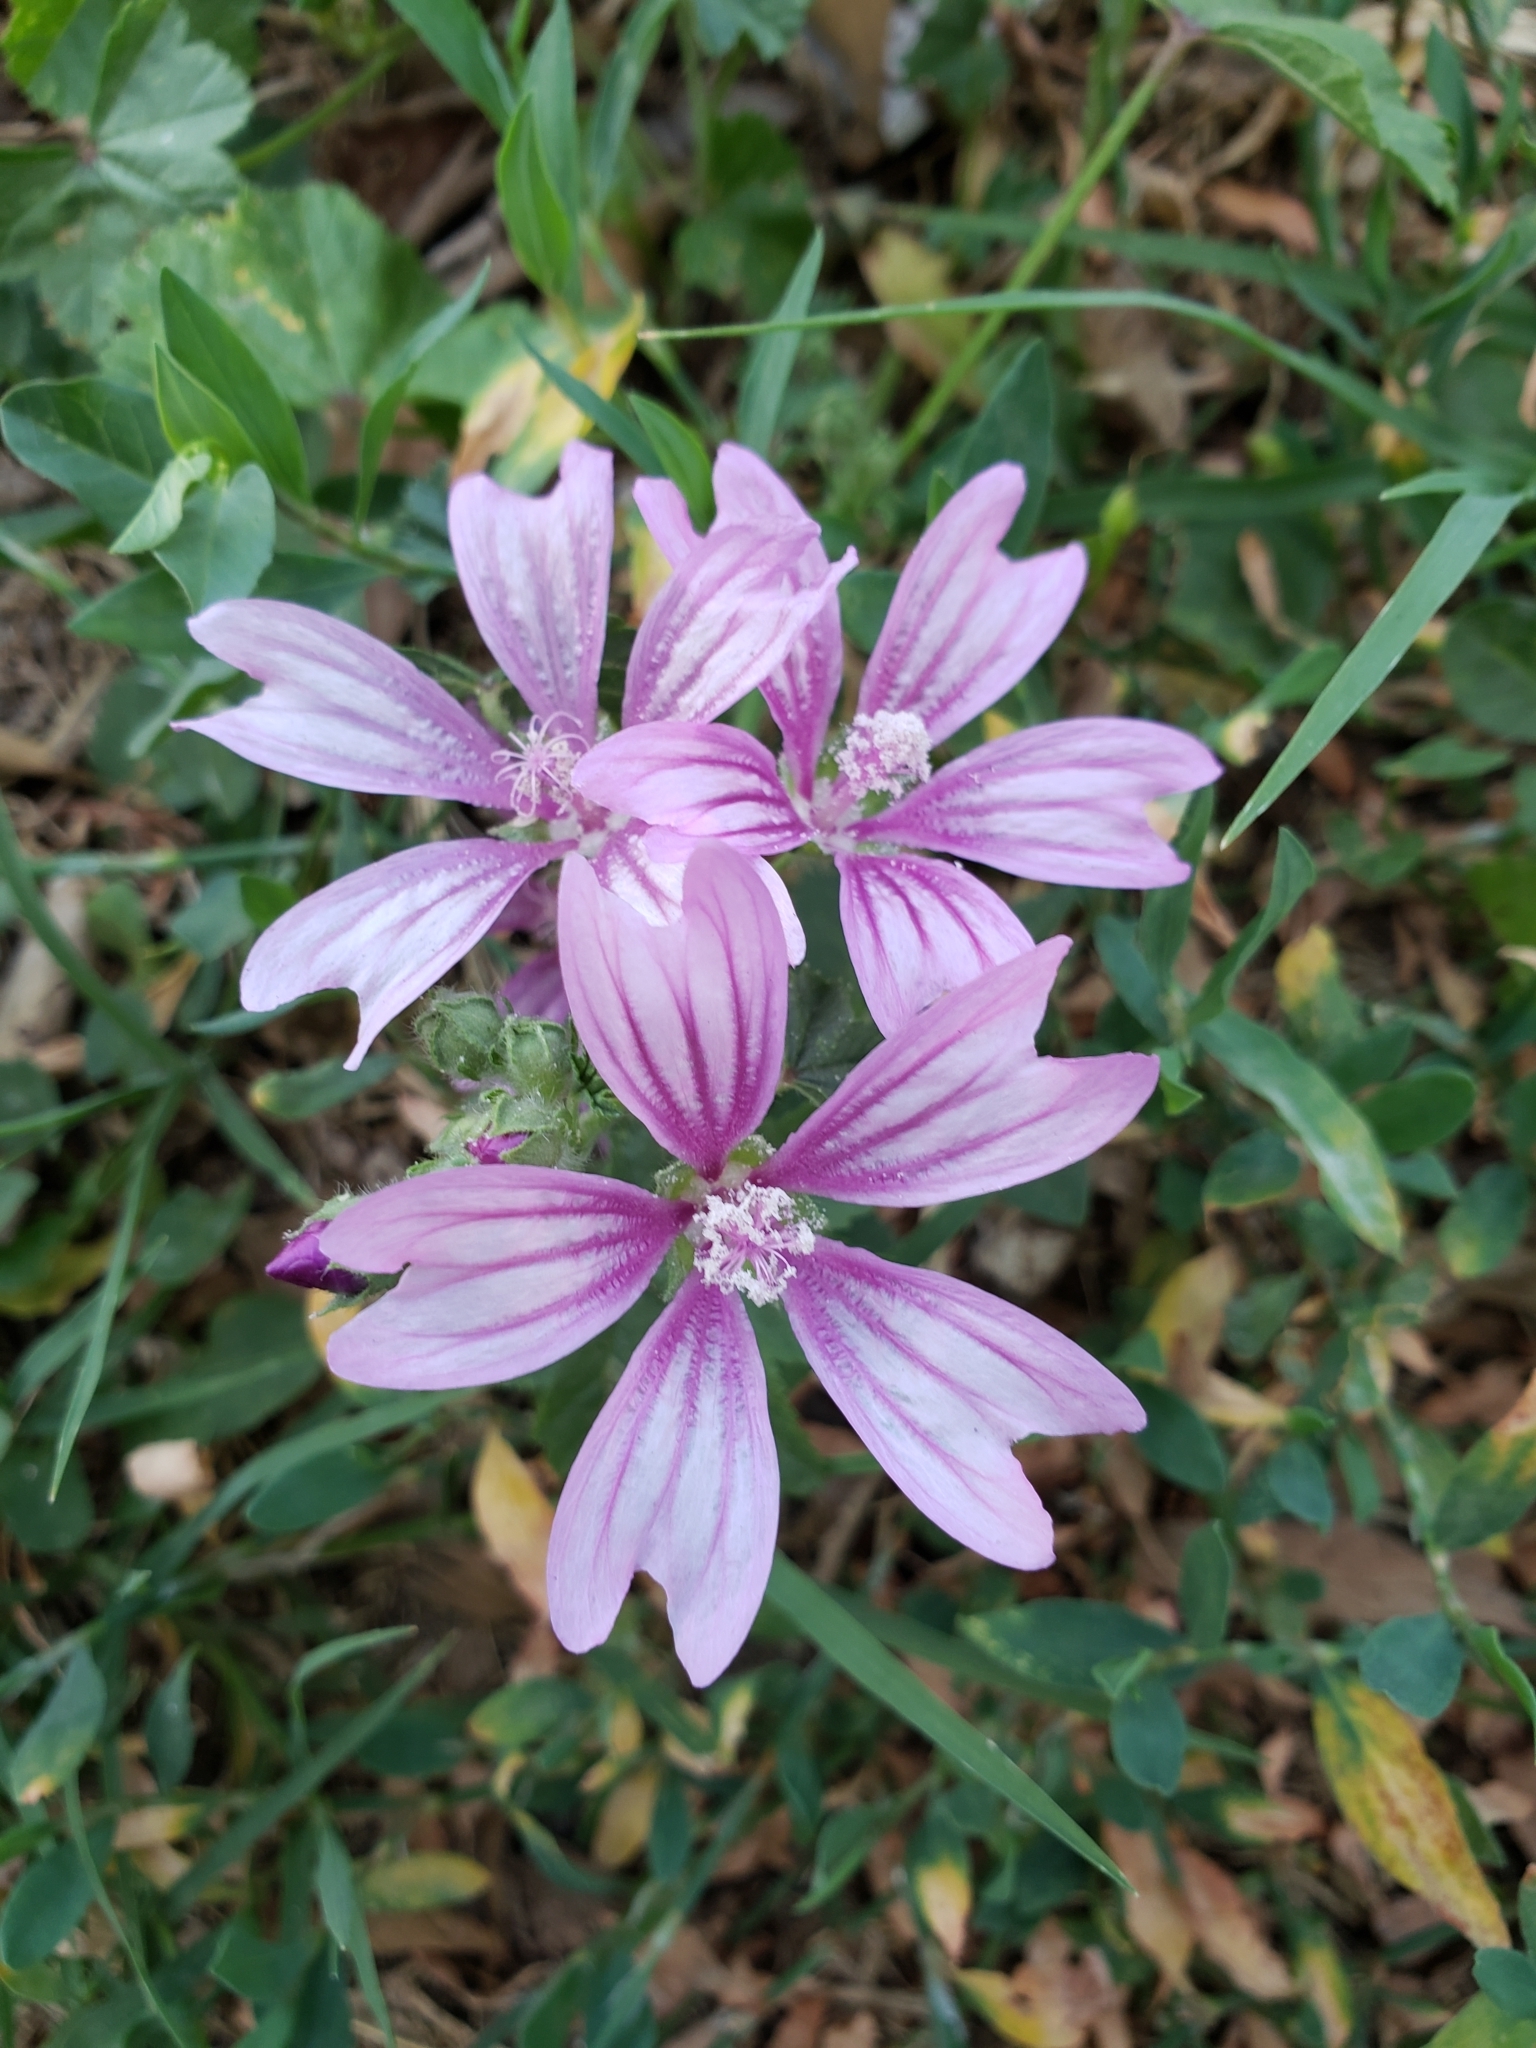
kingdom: Plantae
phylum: Tracheophyta
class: Magnoliopsida
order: Malvales
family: Malvaceae
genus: Malva
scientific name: Malva sylvestris
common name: Common mallow
